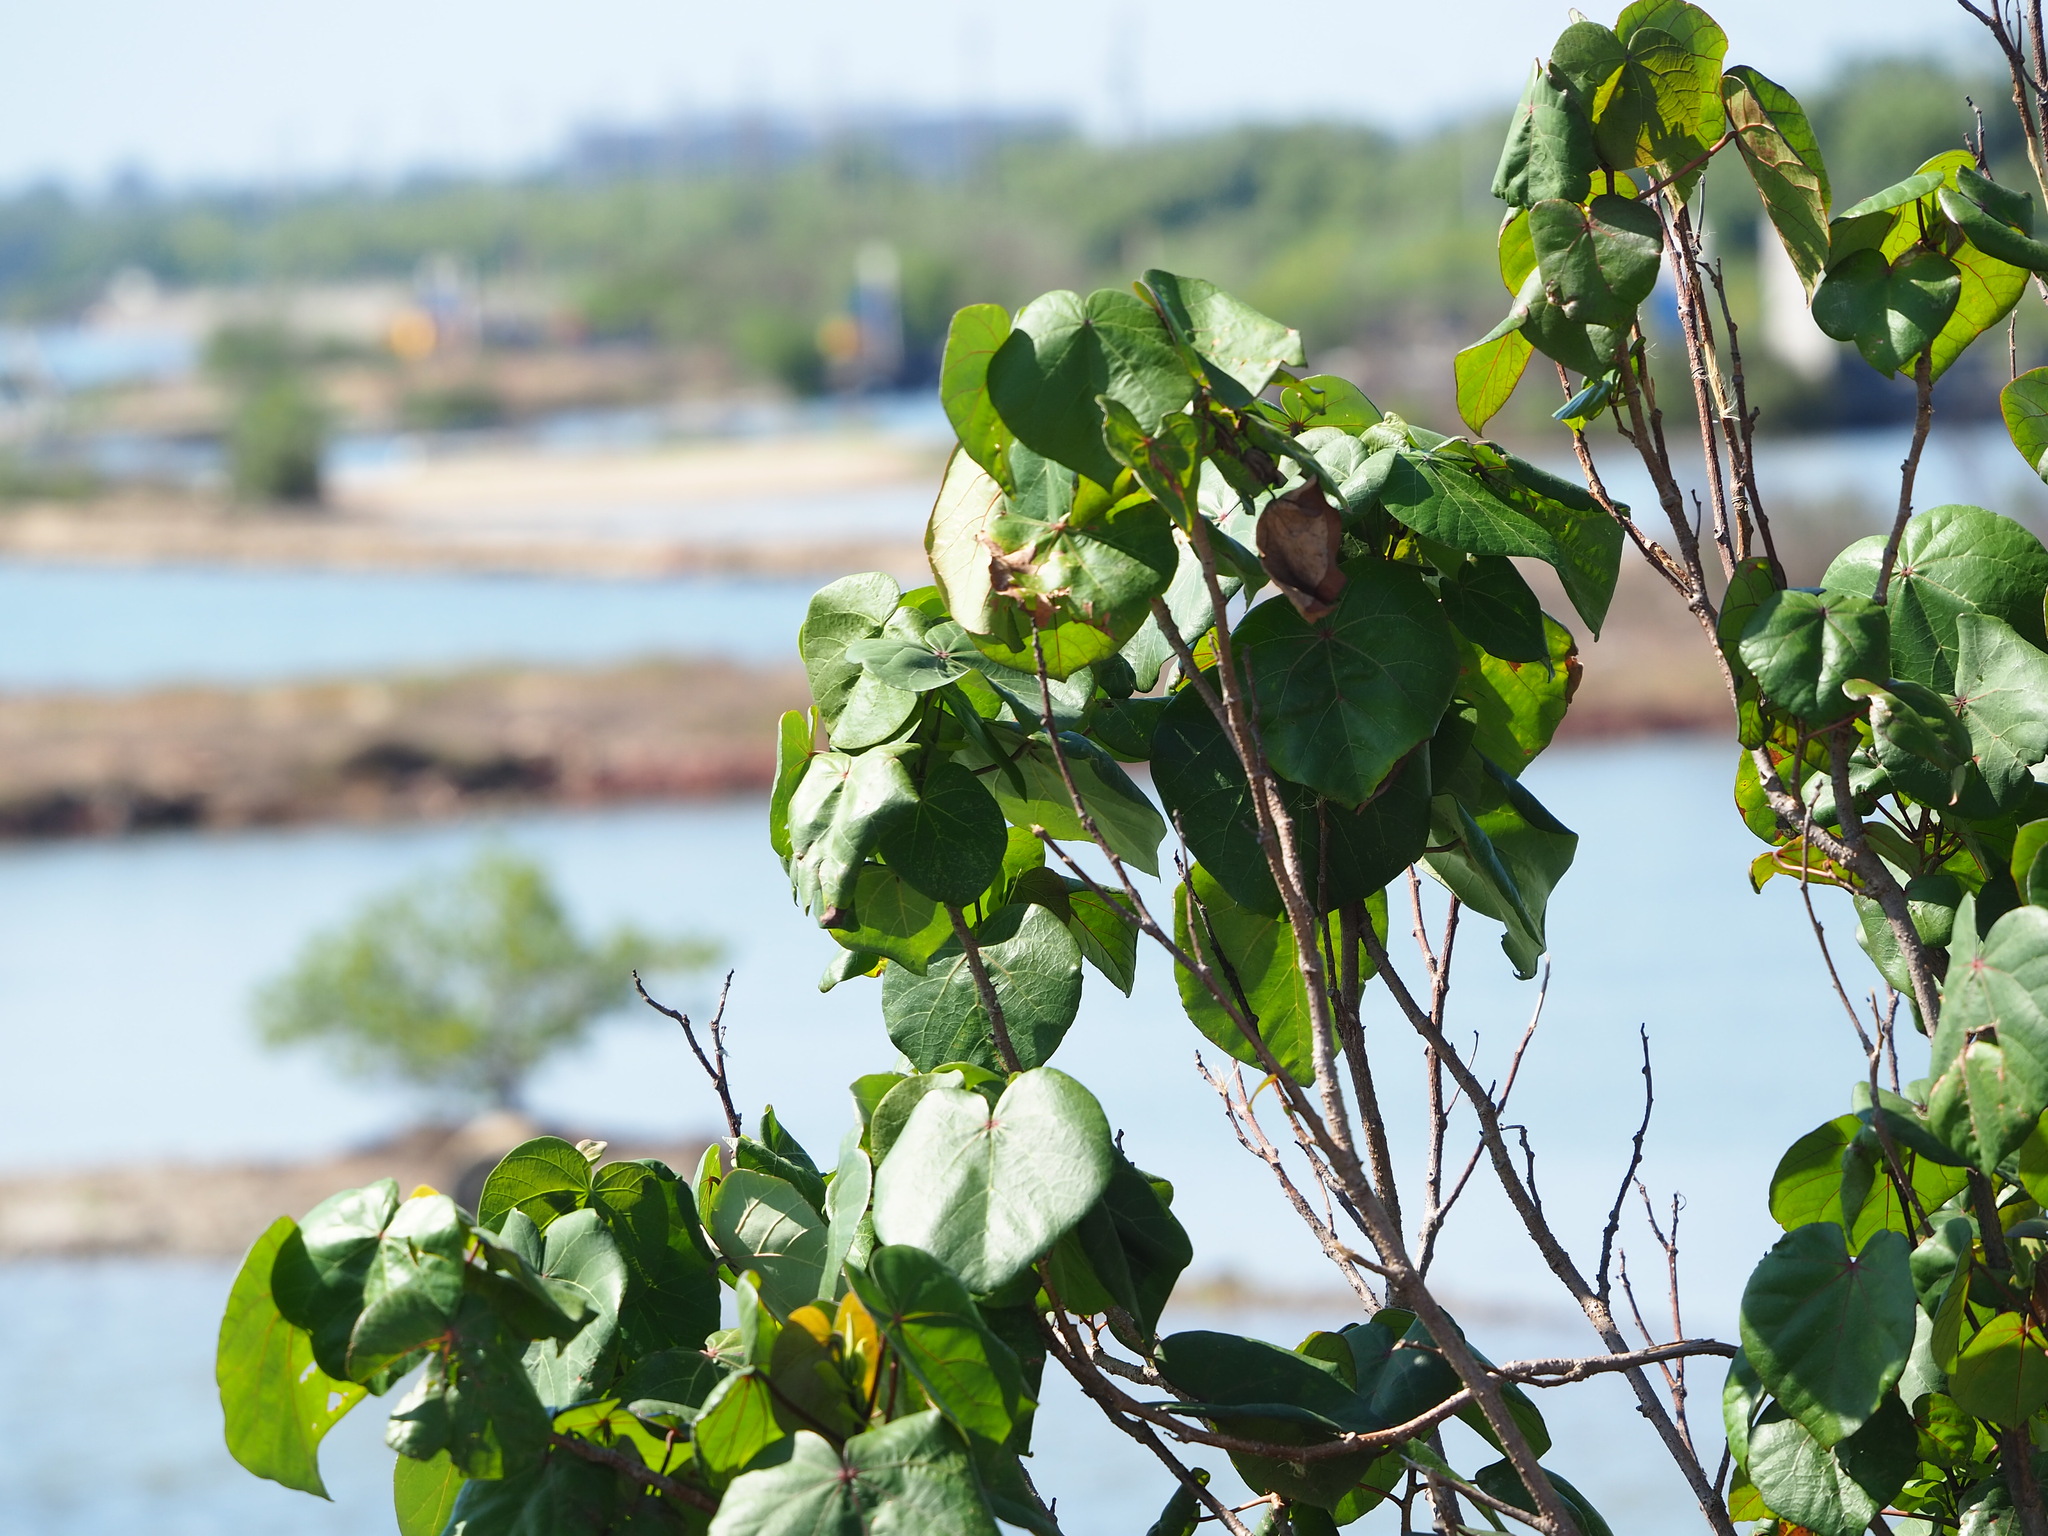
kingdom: Plantae
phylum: Tracheophyta
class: Magnoliopsida
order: Malvales
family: Malvaceae
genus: Talipariti
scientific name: Talipariti tiliaceum
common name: Sea hibiscus
